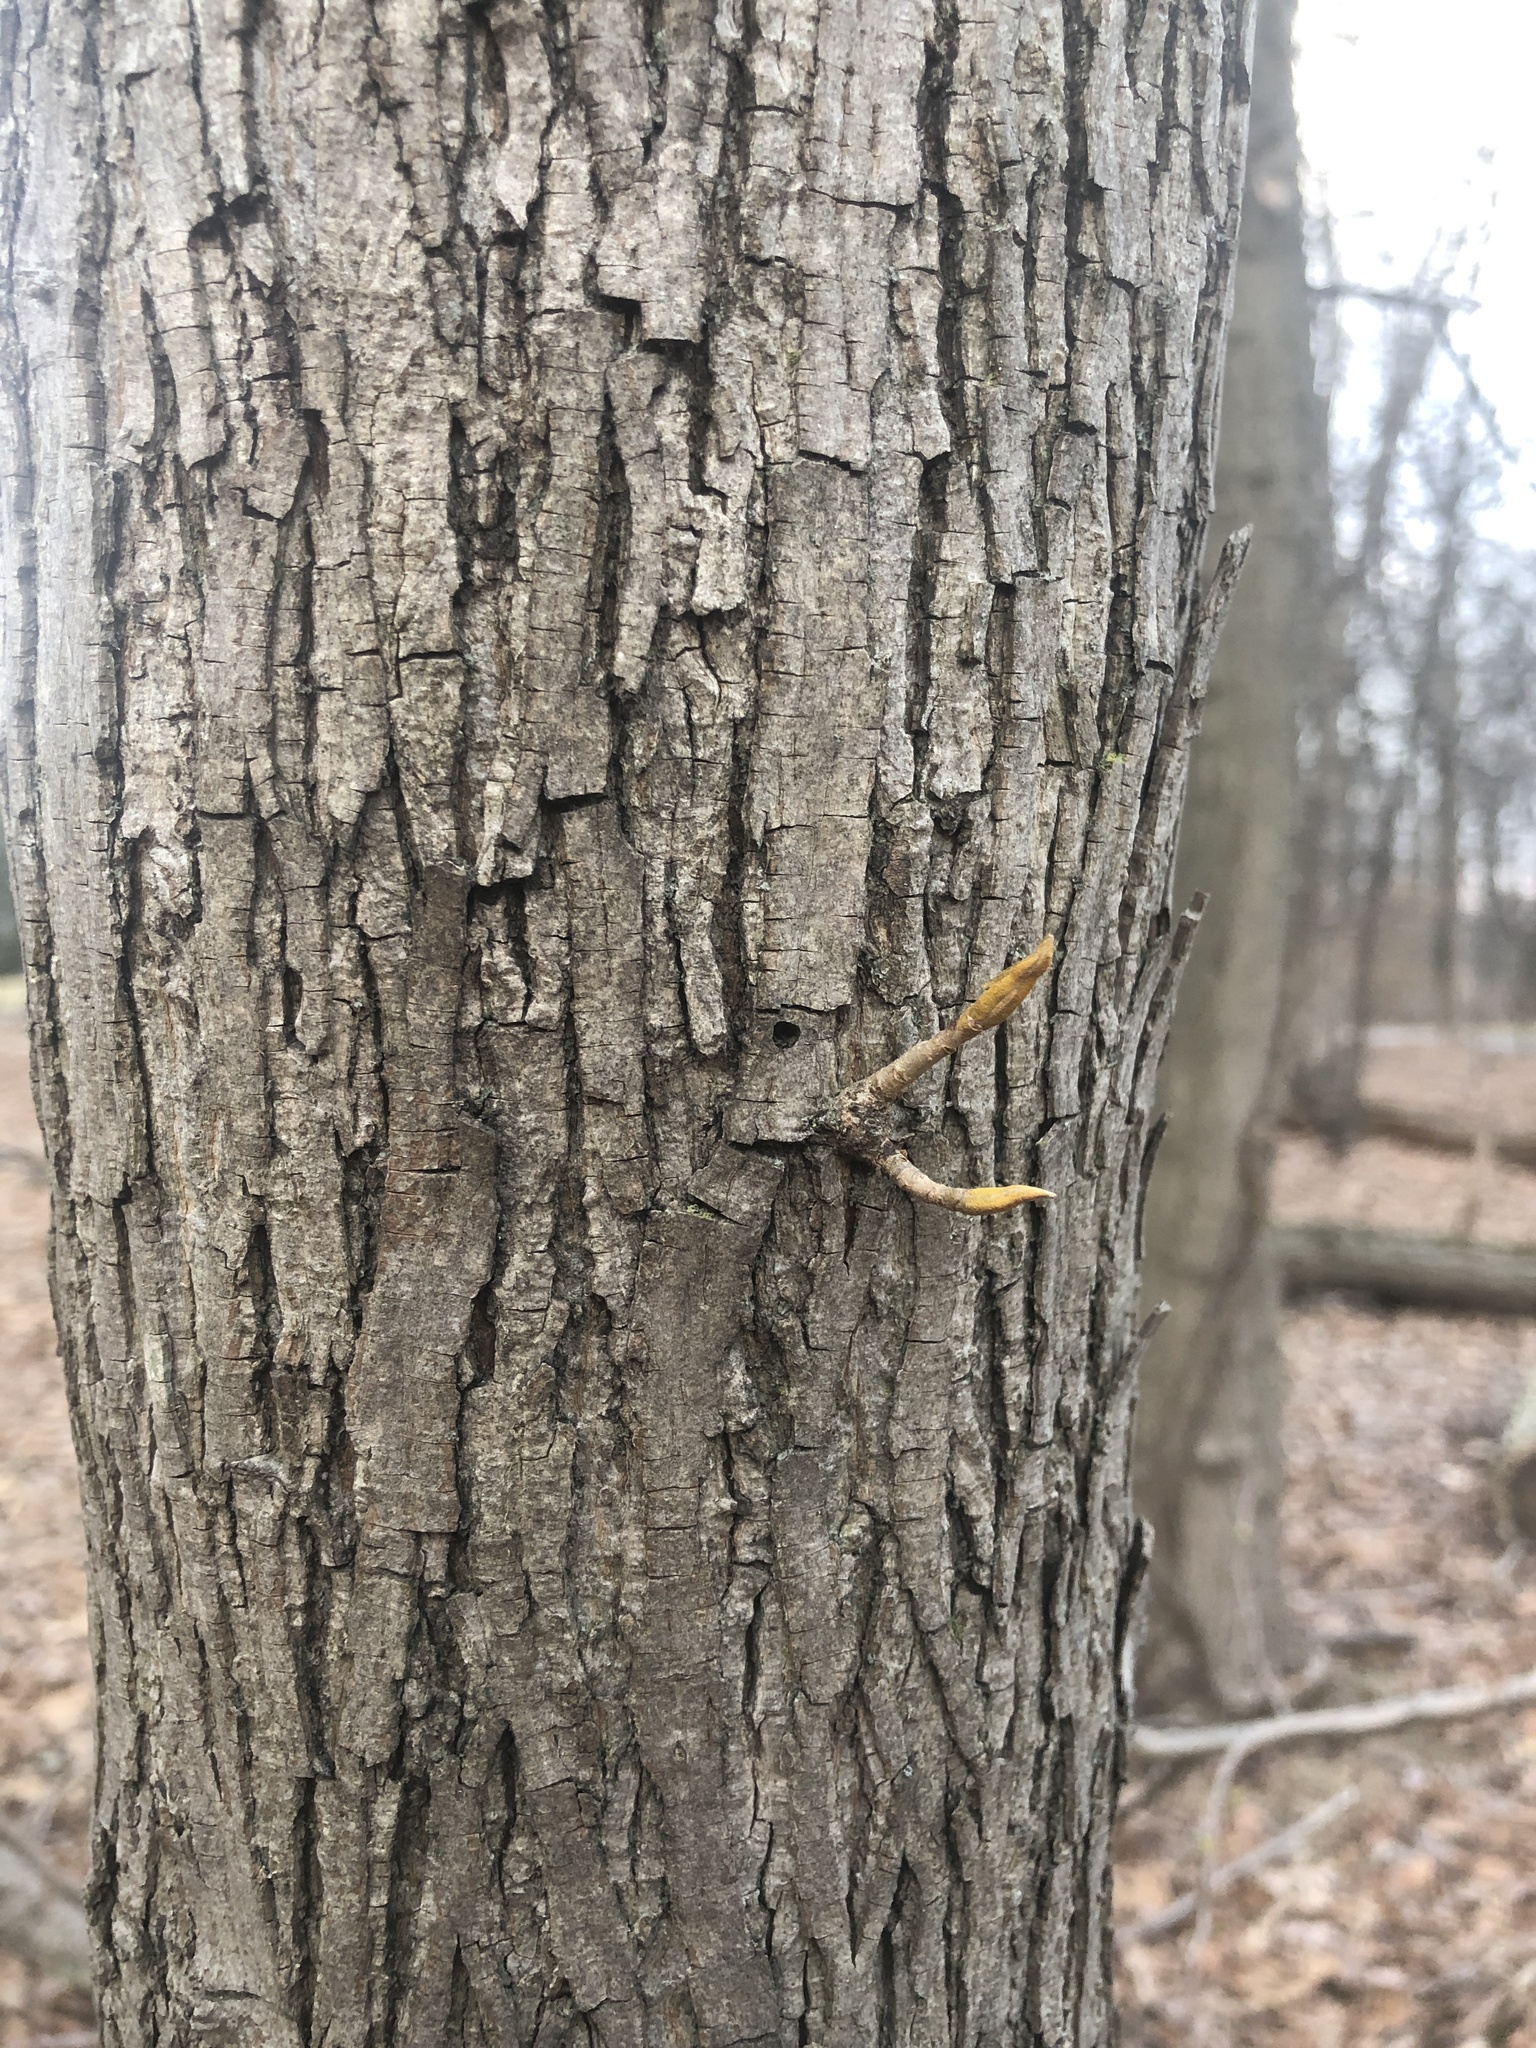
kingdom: Plantae
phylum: Tracheophyta
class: Magnoliopsida
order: Fagales
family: Juglandaceae
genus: Carya
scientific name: Carya cordiformis
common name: Bitternut hickory
